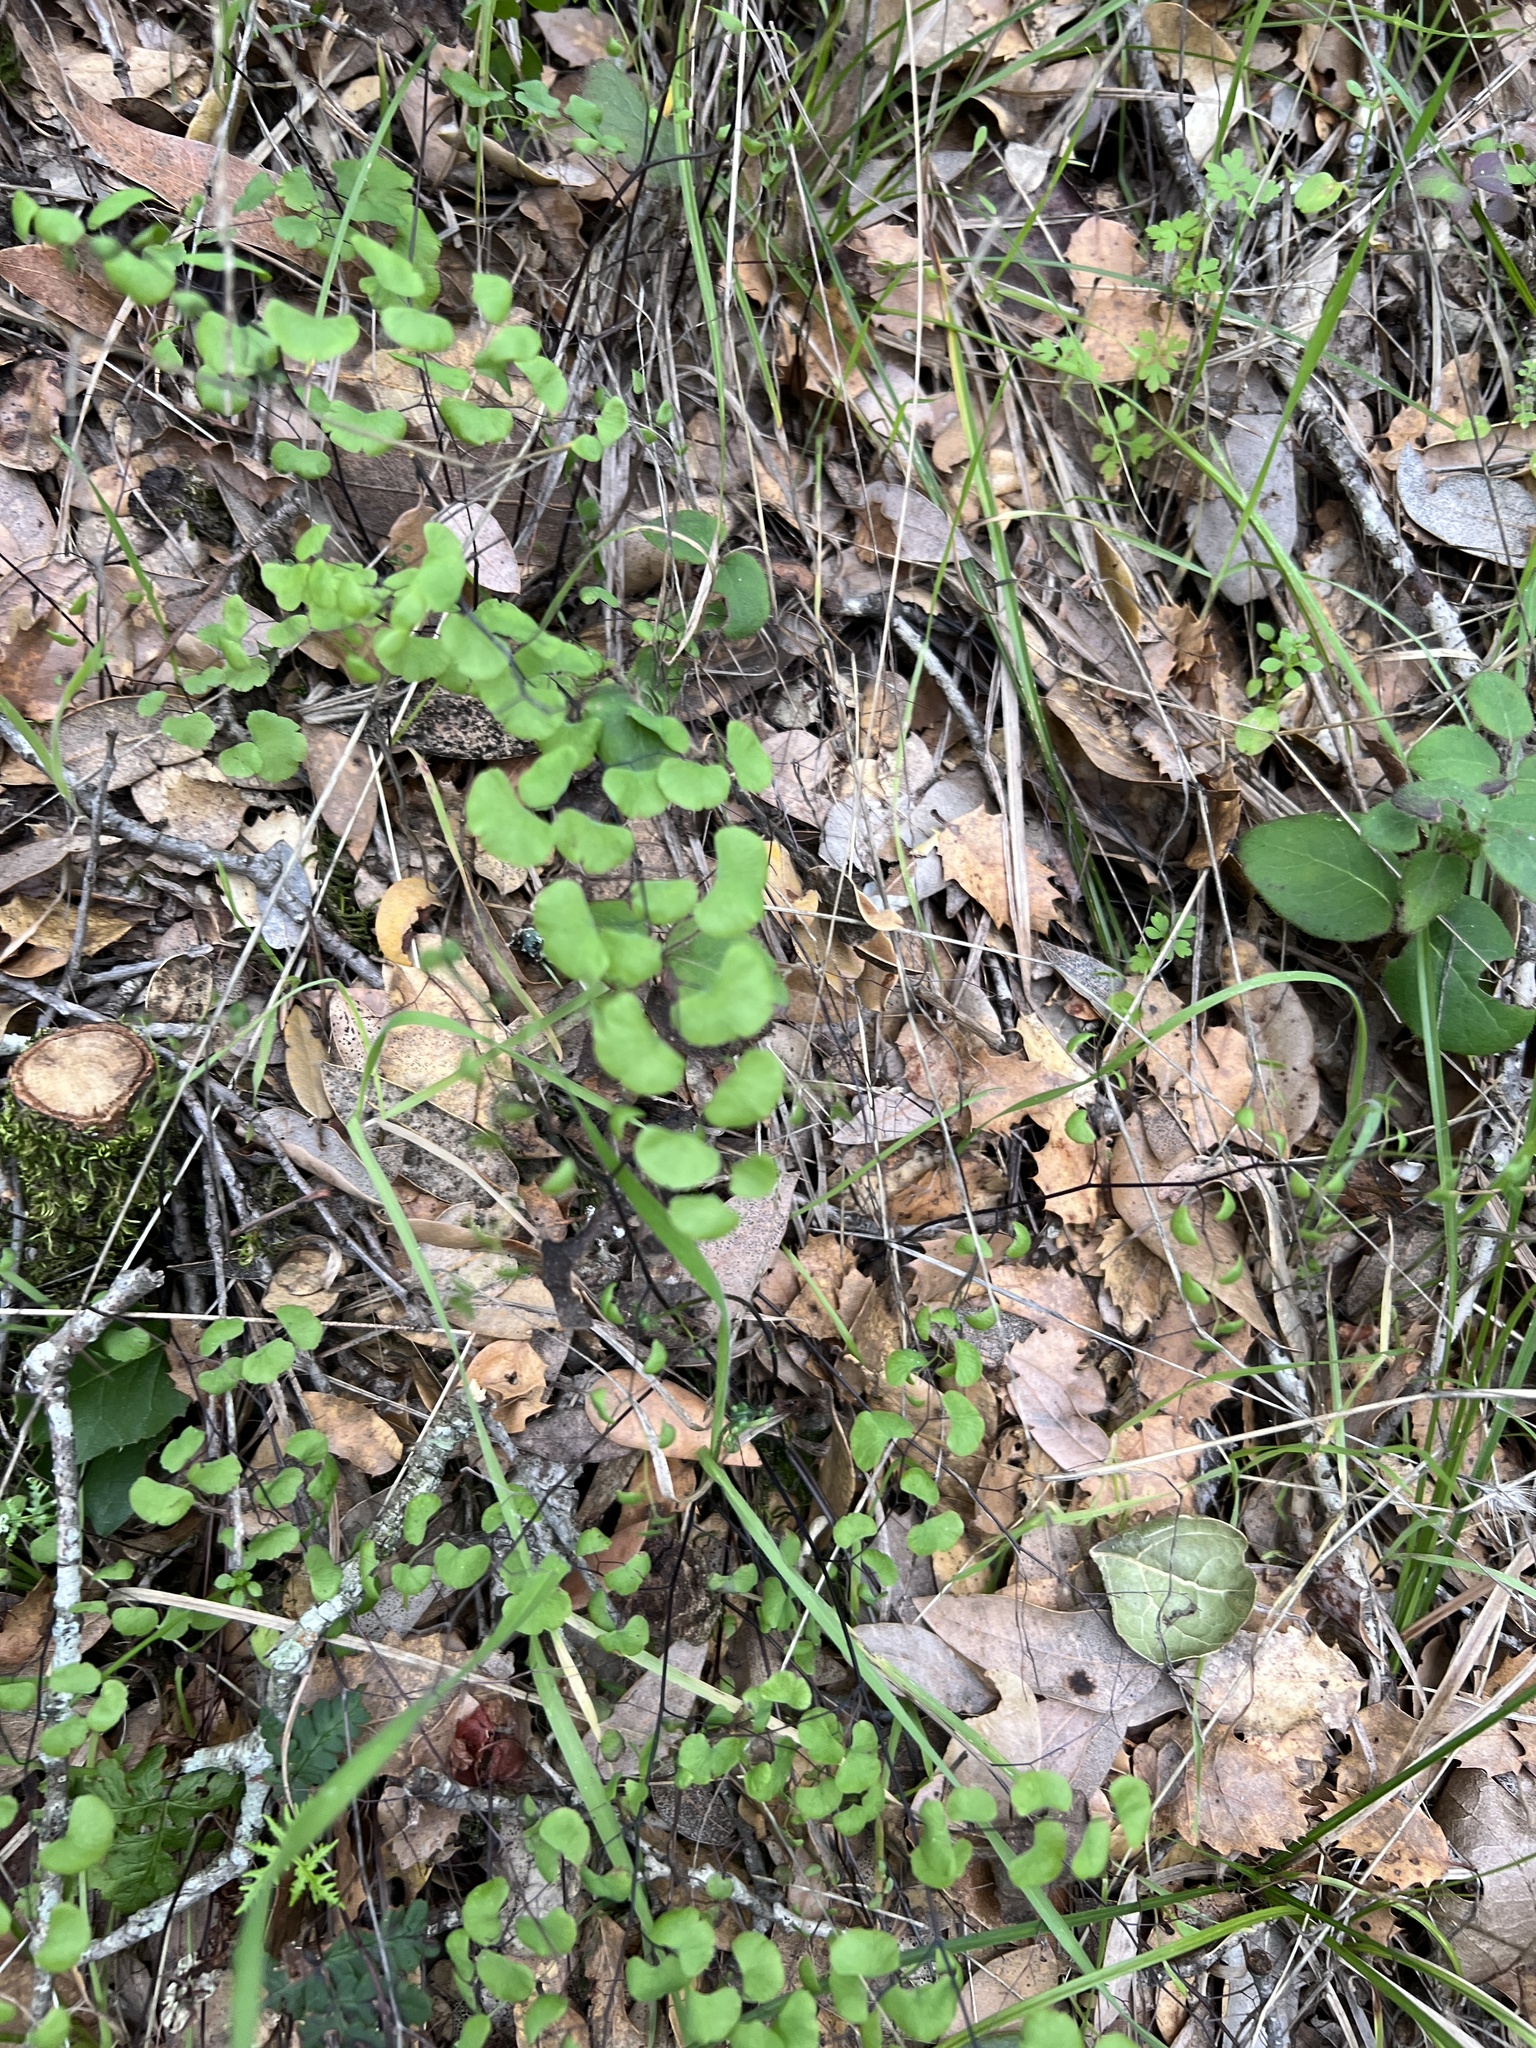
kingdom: Plantae
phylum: Tracheophyta
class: Polypodiopsida
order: Polypodiales
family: Pteridaceae
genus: Adiantum
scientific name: Adiantum jordanii
